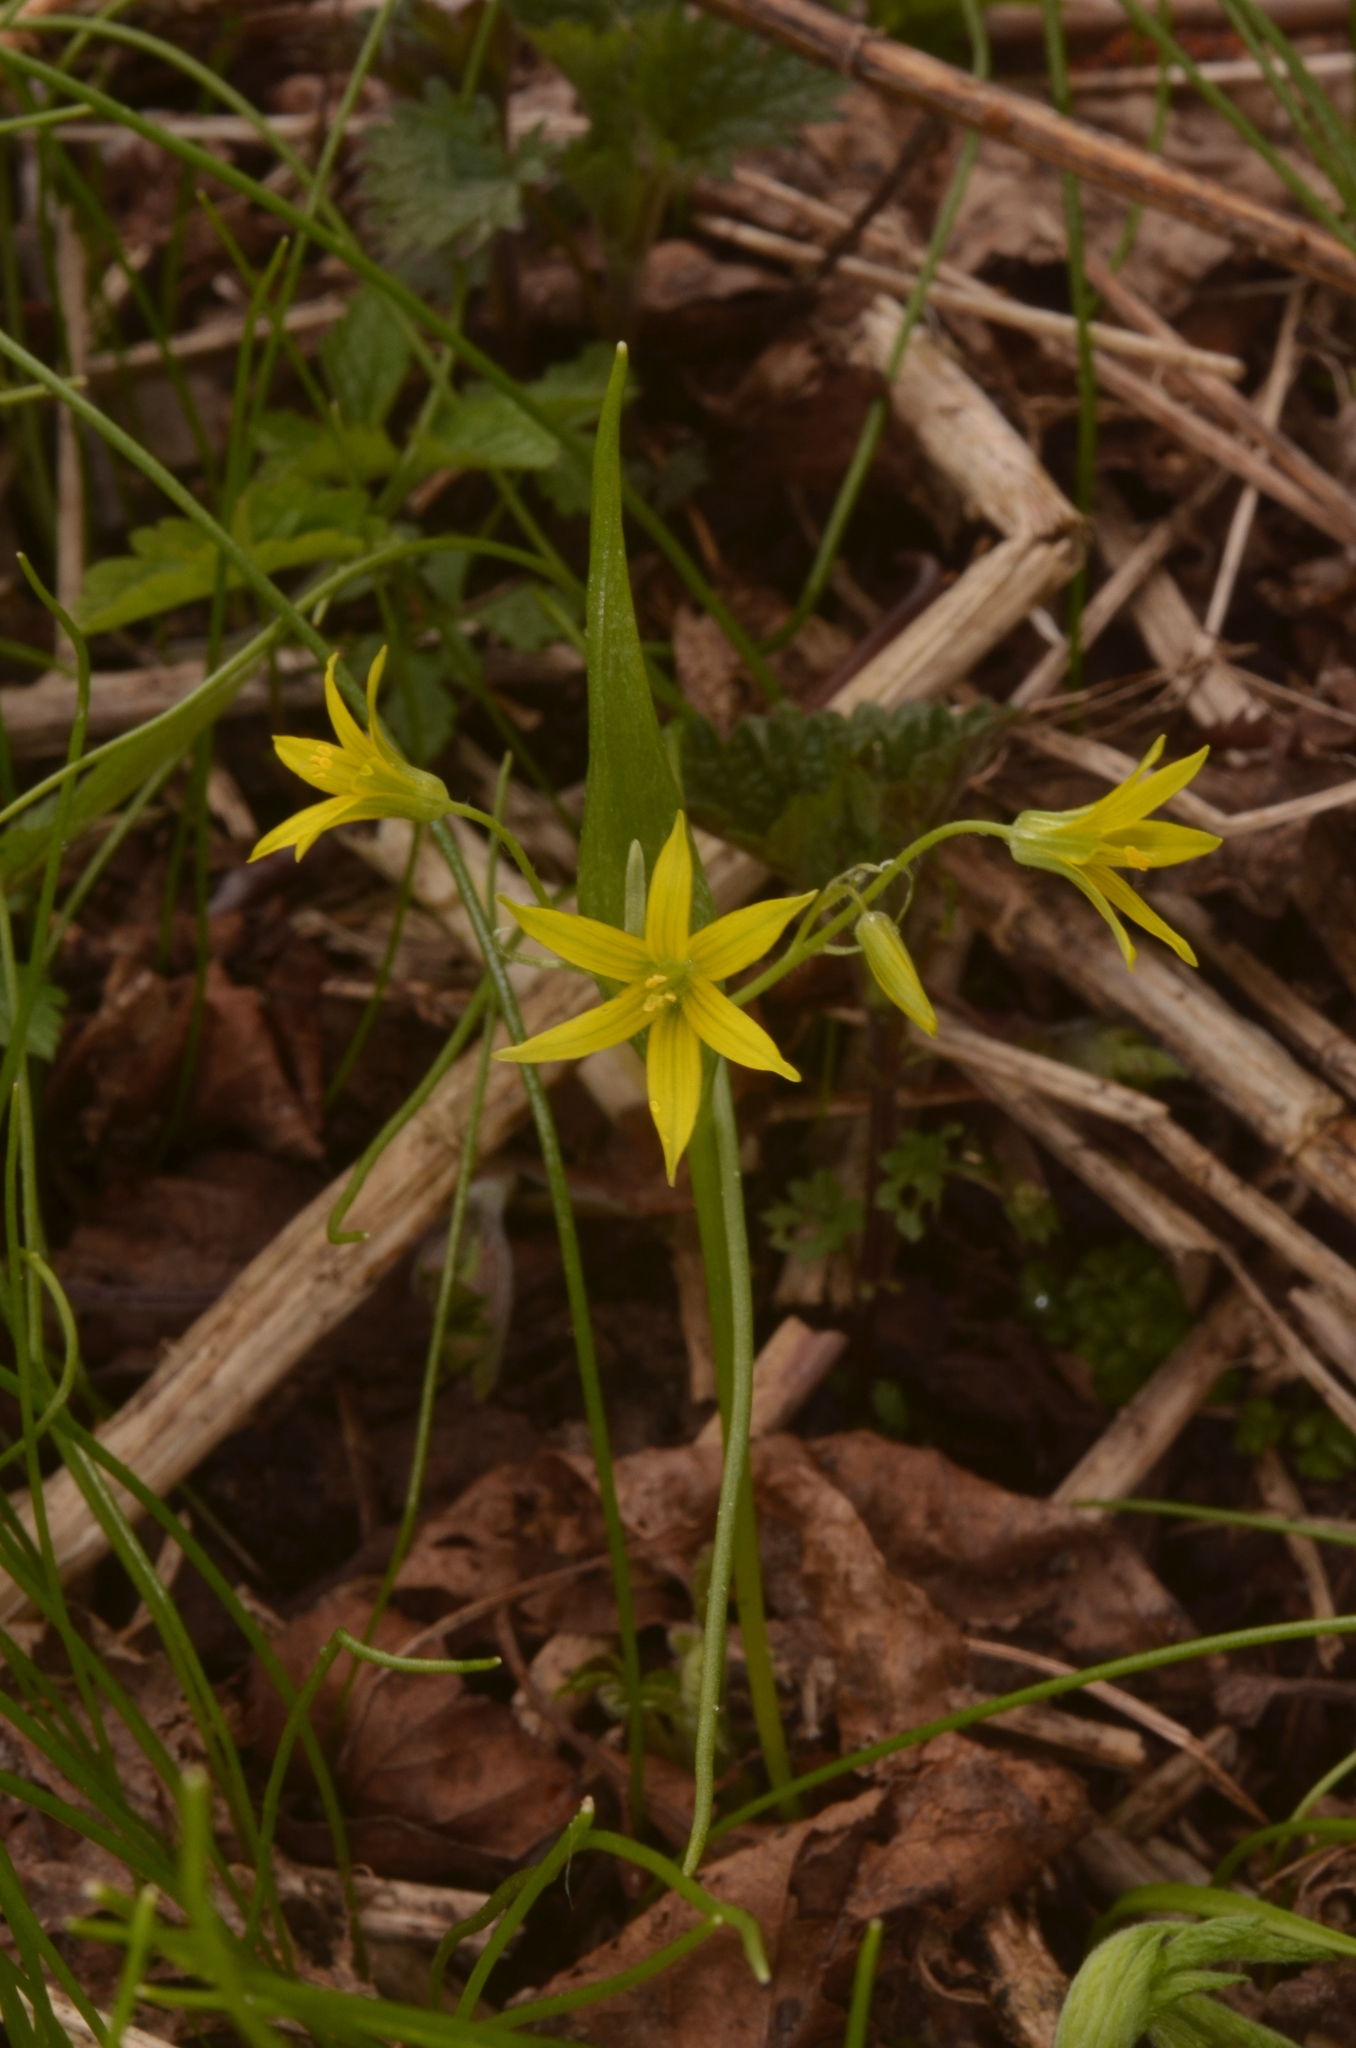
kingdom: Plantae
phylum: Tracheophyta
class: Liliopsida
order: Liliales
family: Liliaceae
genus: Gagea
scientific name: Gagea minima
